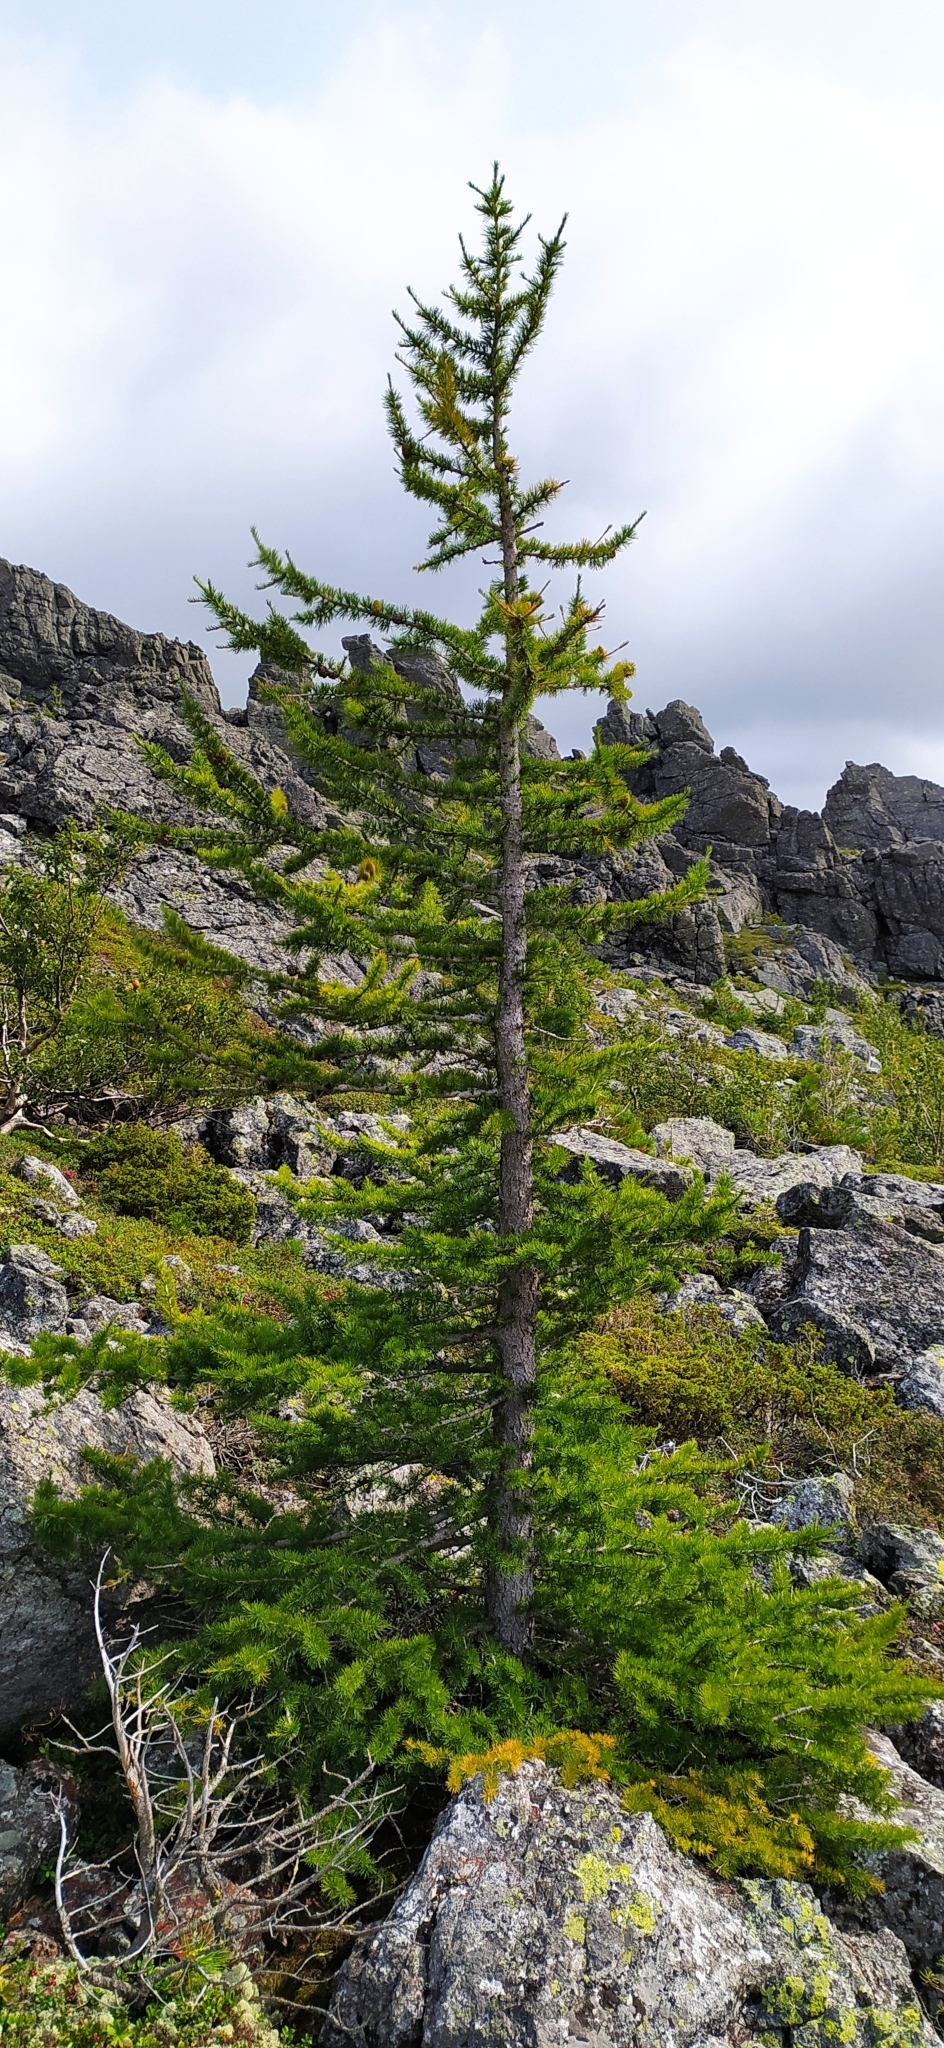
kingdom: Plantae
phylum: Tracheophyta
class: Pinopsida
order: Pinales
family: Pinaceae
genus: Larix
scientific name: Larix sibirica
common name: Siberian larch
